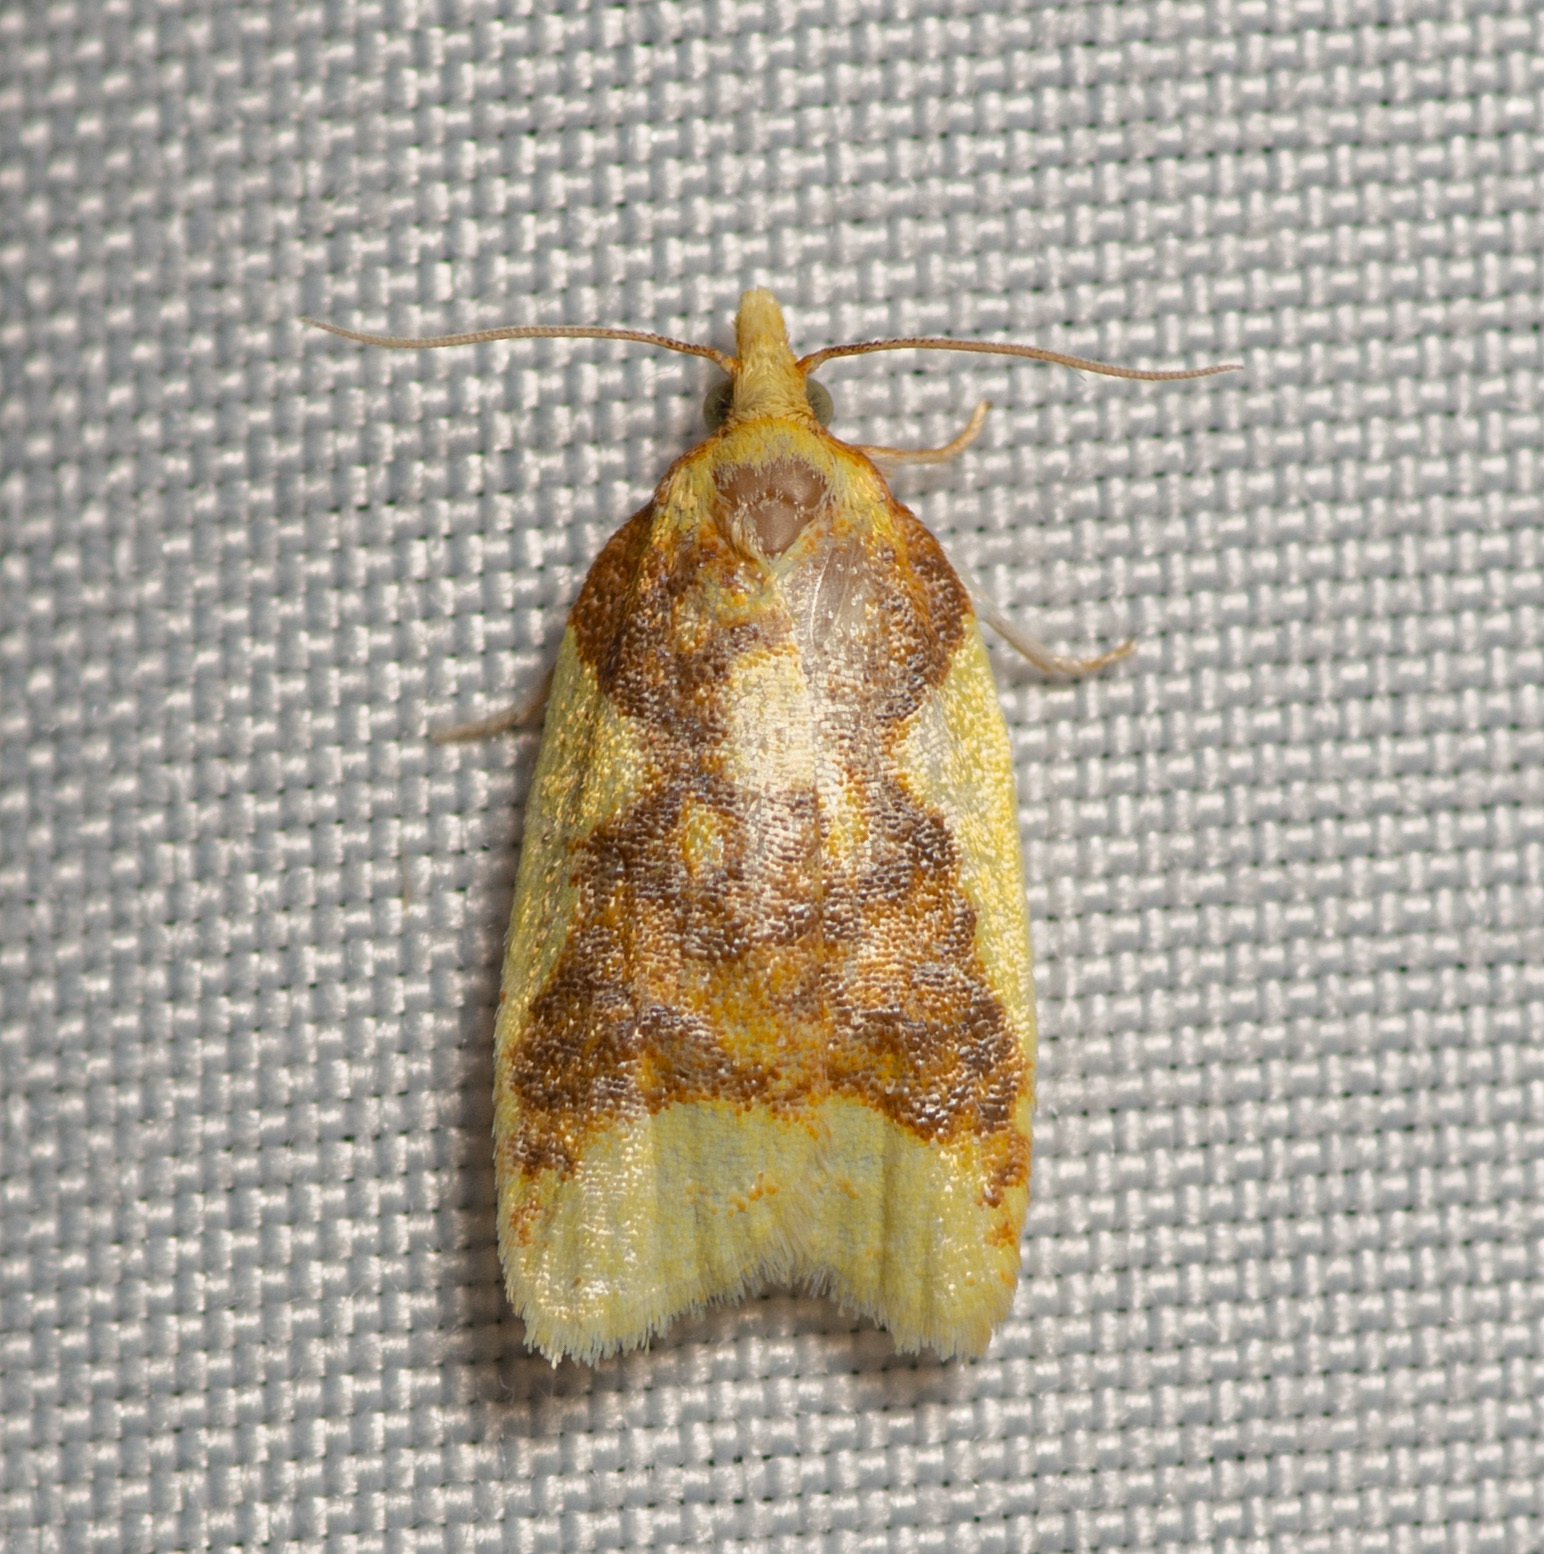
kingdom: Animalia
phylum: Arthropoda
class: Insecta
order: Lepidoptera
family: Tortricidae
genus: Sparganothis
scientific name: Sparganothis pulcherrimana
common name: Beautiful sparganothis
